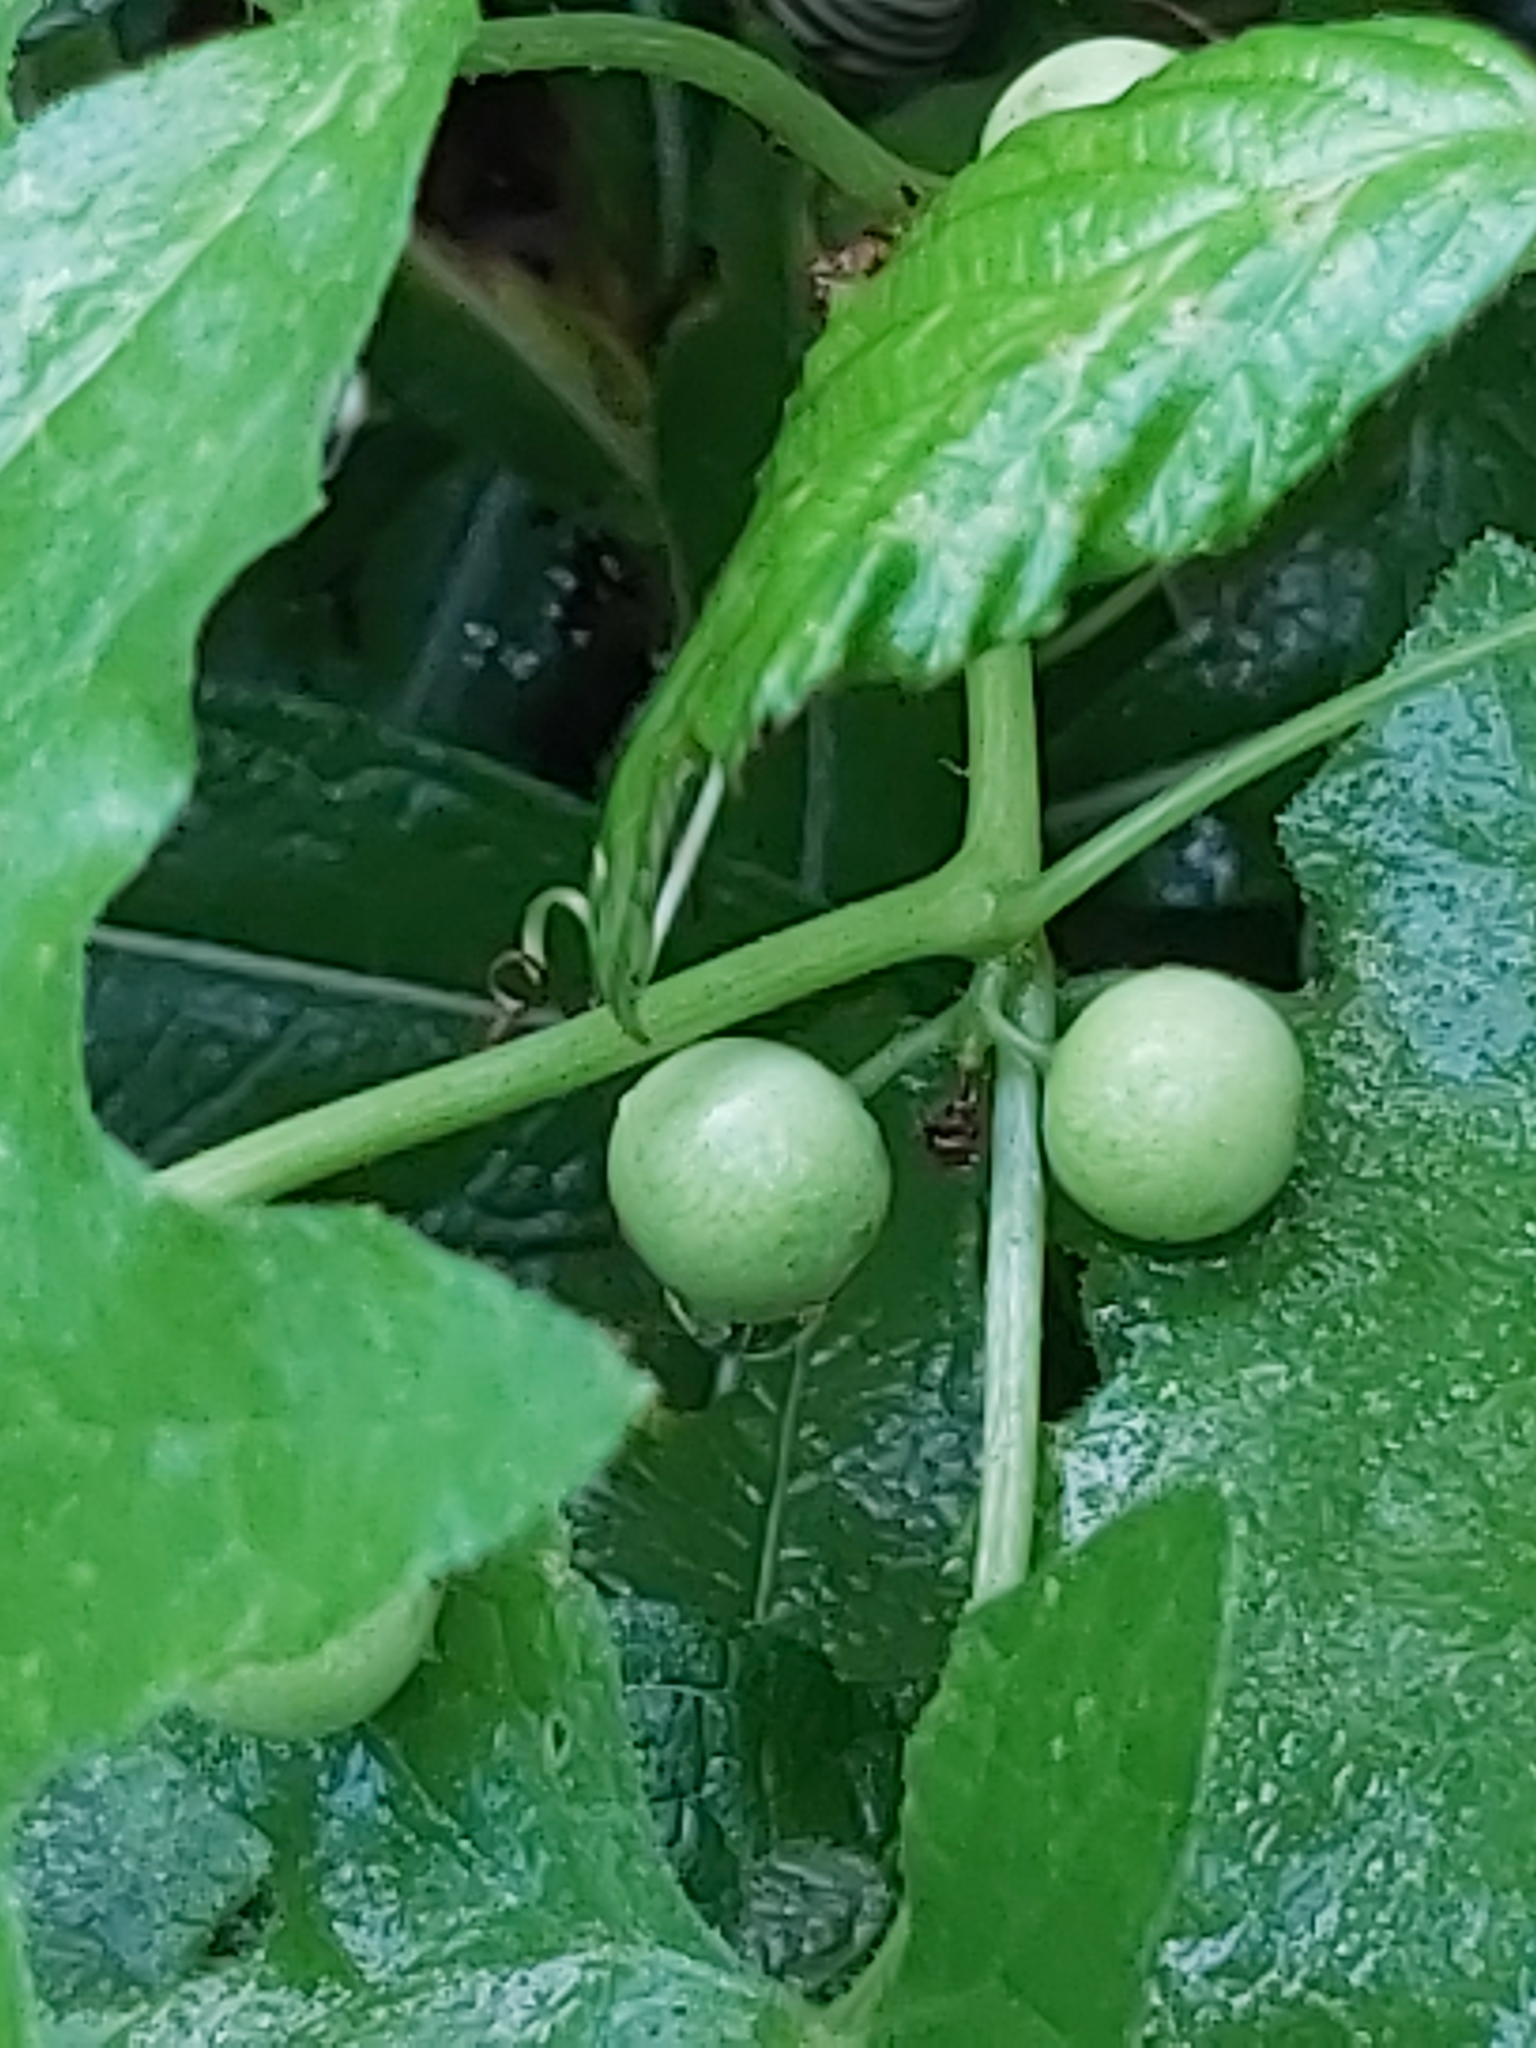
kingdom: Plantae
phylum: Tracheophyta
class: Magnoliopsida
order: Cucurbitales
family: Cucurbitaceae
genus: Bryonia
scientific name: Bryonia cretica
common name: Cretan bryony
